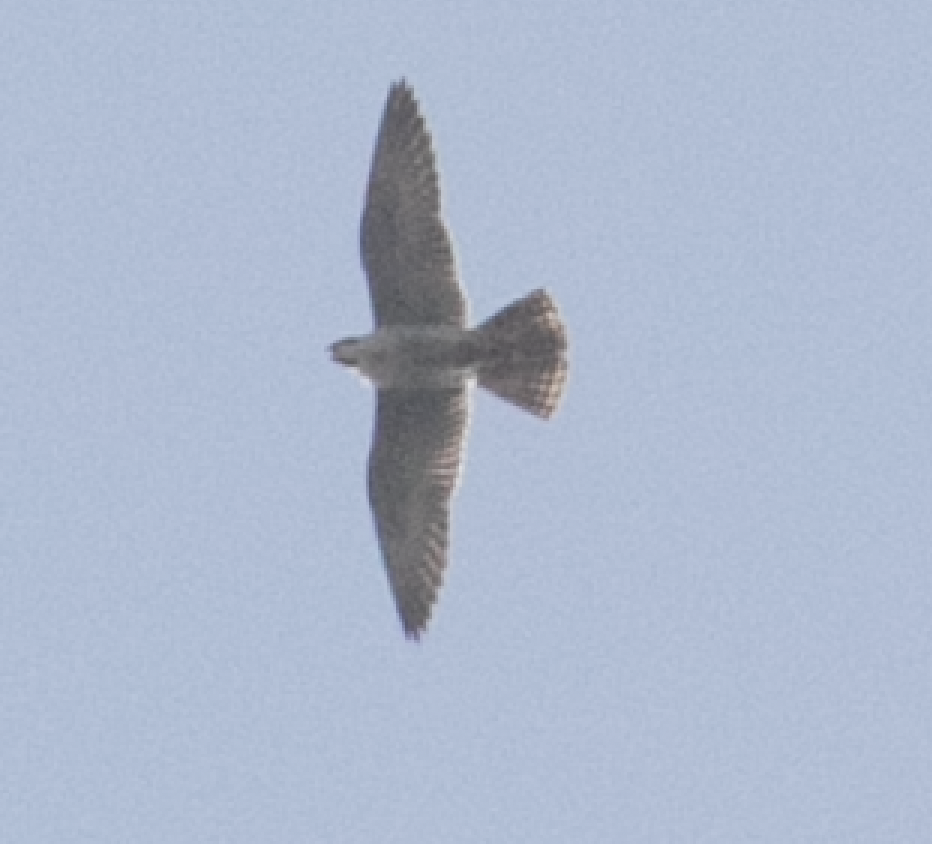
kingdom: Animalia
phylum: Chordata
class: Aves
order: Falconiformes
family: Falconidae
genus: Falco
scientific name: Falco peregrinus
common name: Peregrine falcon
